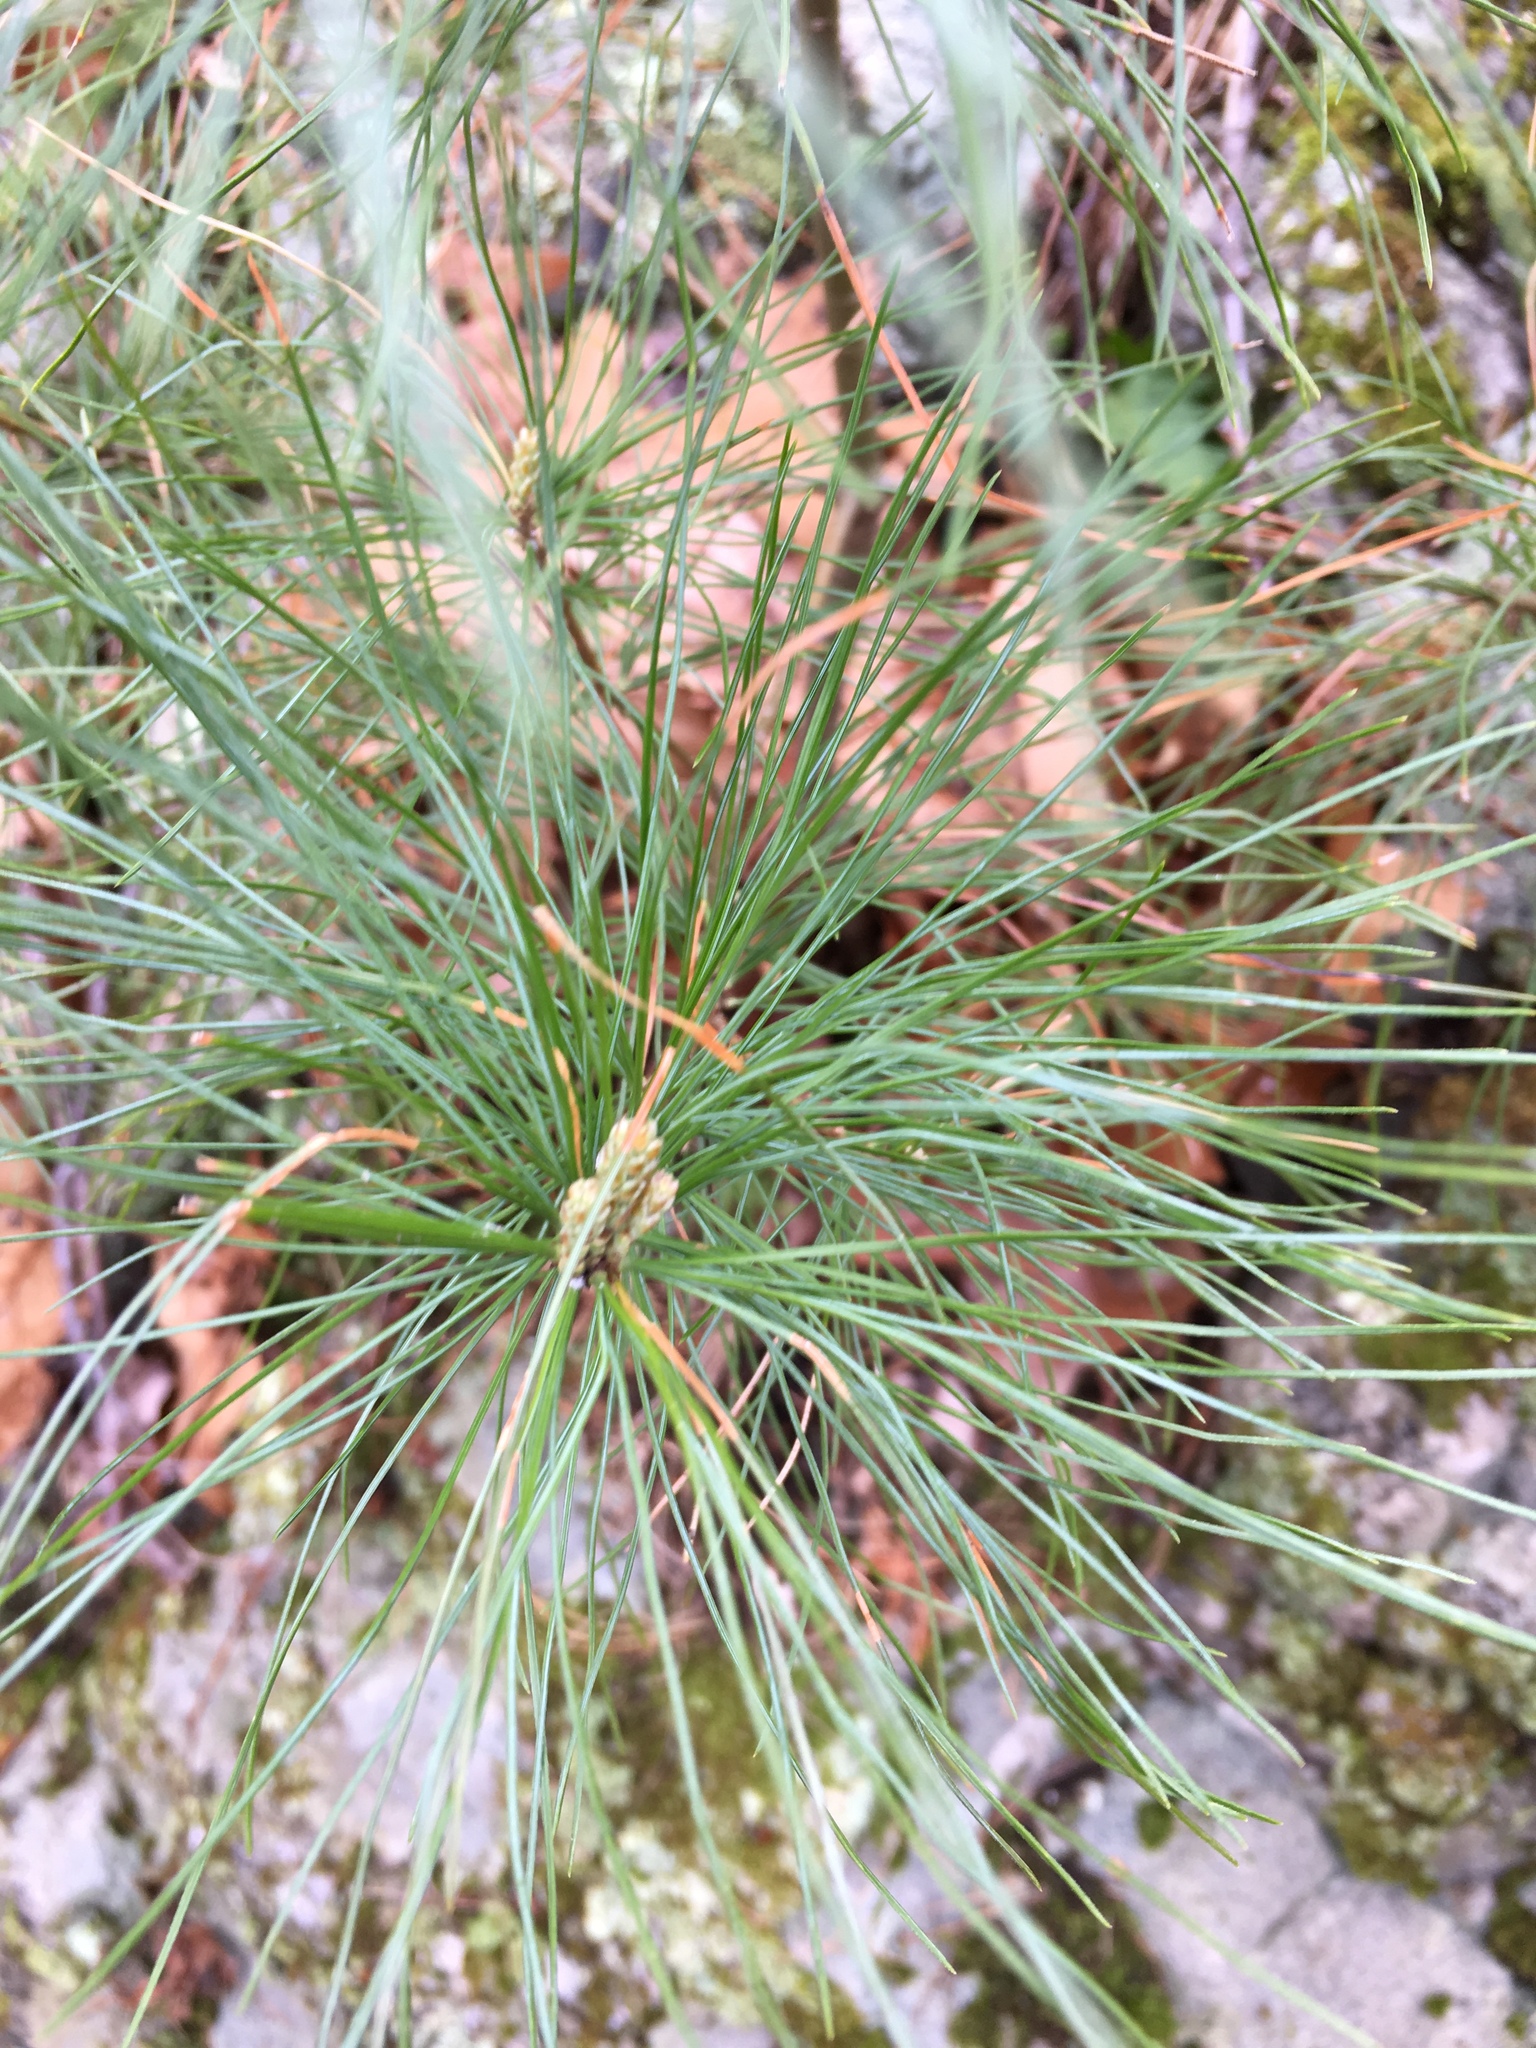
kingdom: Plantae
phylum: Tracheophyta
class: Pinopsida
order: Pinales
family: Pinaceae
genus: Pinus
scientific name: Pinus strobus
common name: Weymouth pine
